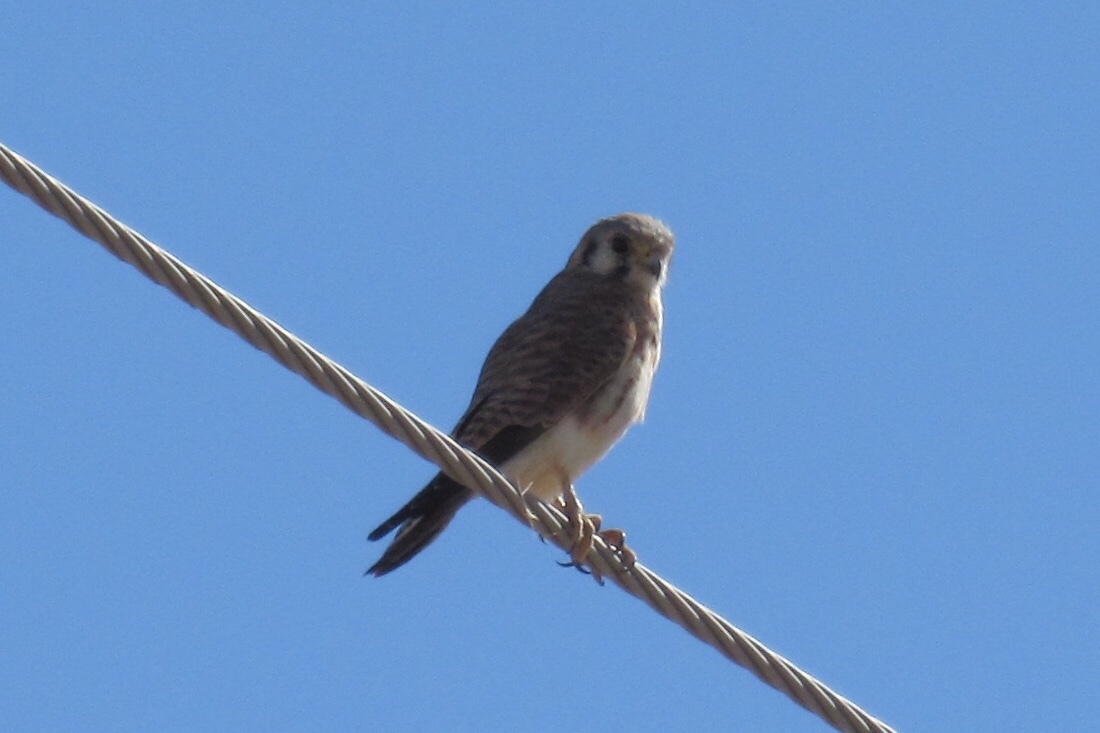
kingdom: Animalia
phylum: Chordata
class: Aves
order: Falconiformes
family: Falconidae
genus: Falco
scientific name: Falco sparverius
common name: American kestrel
